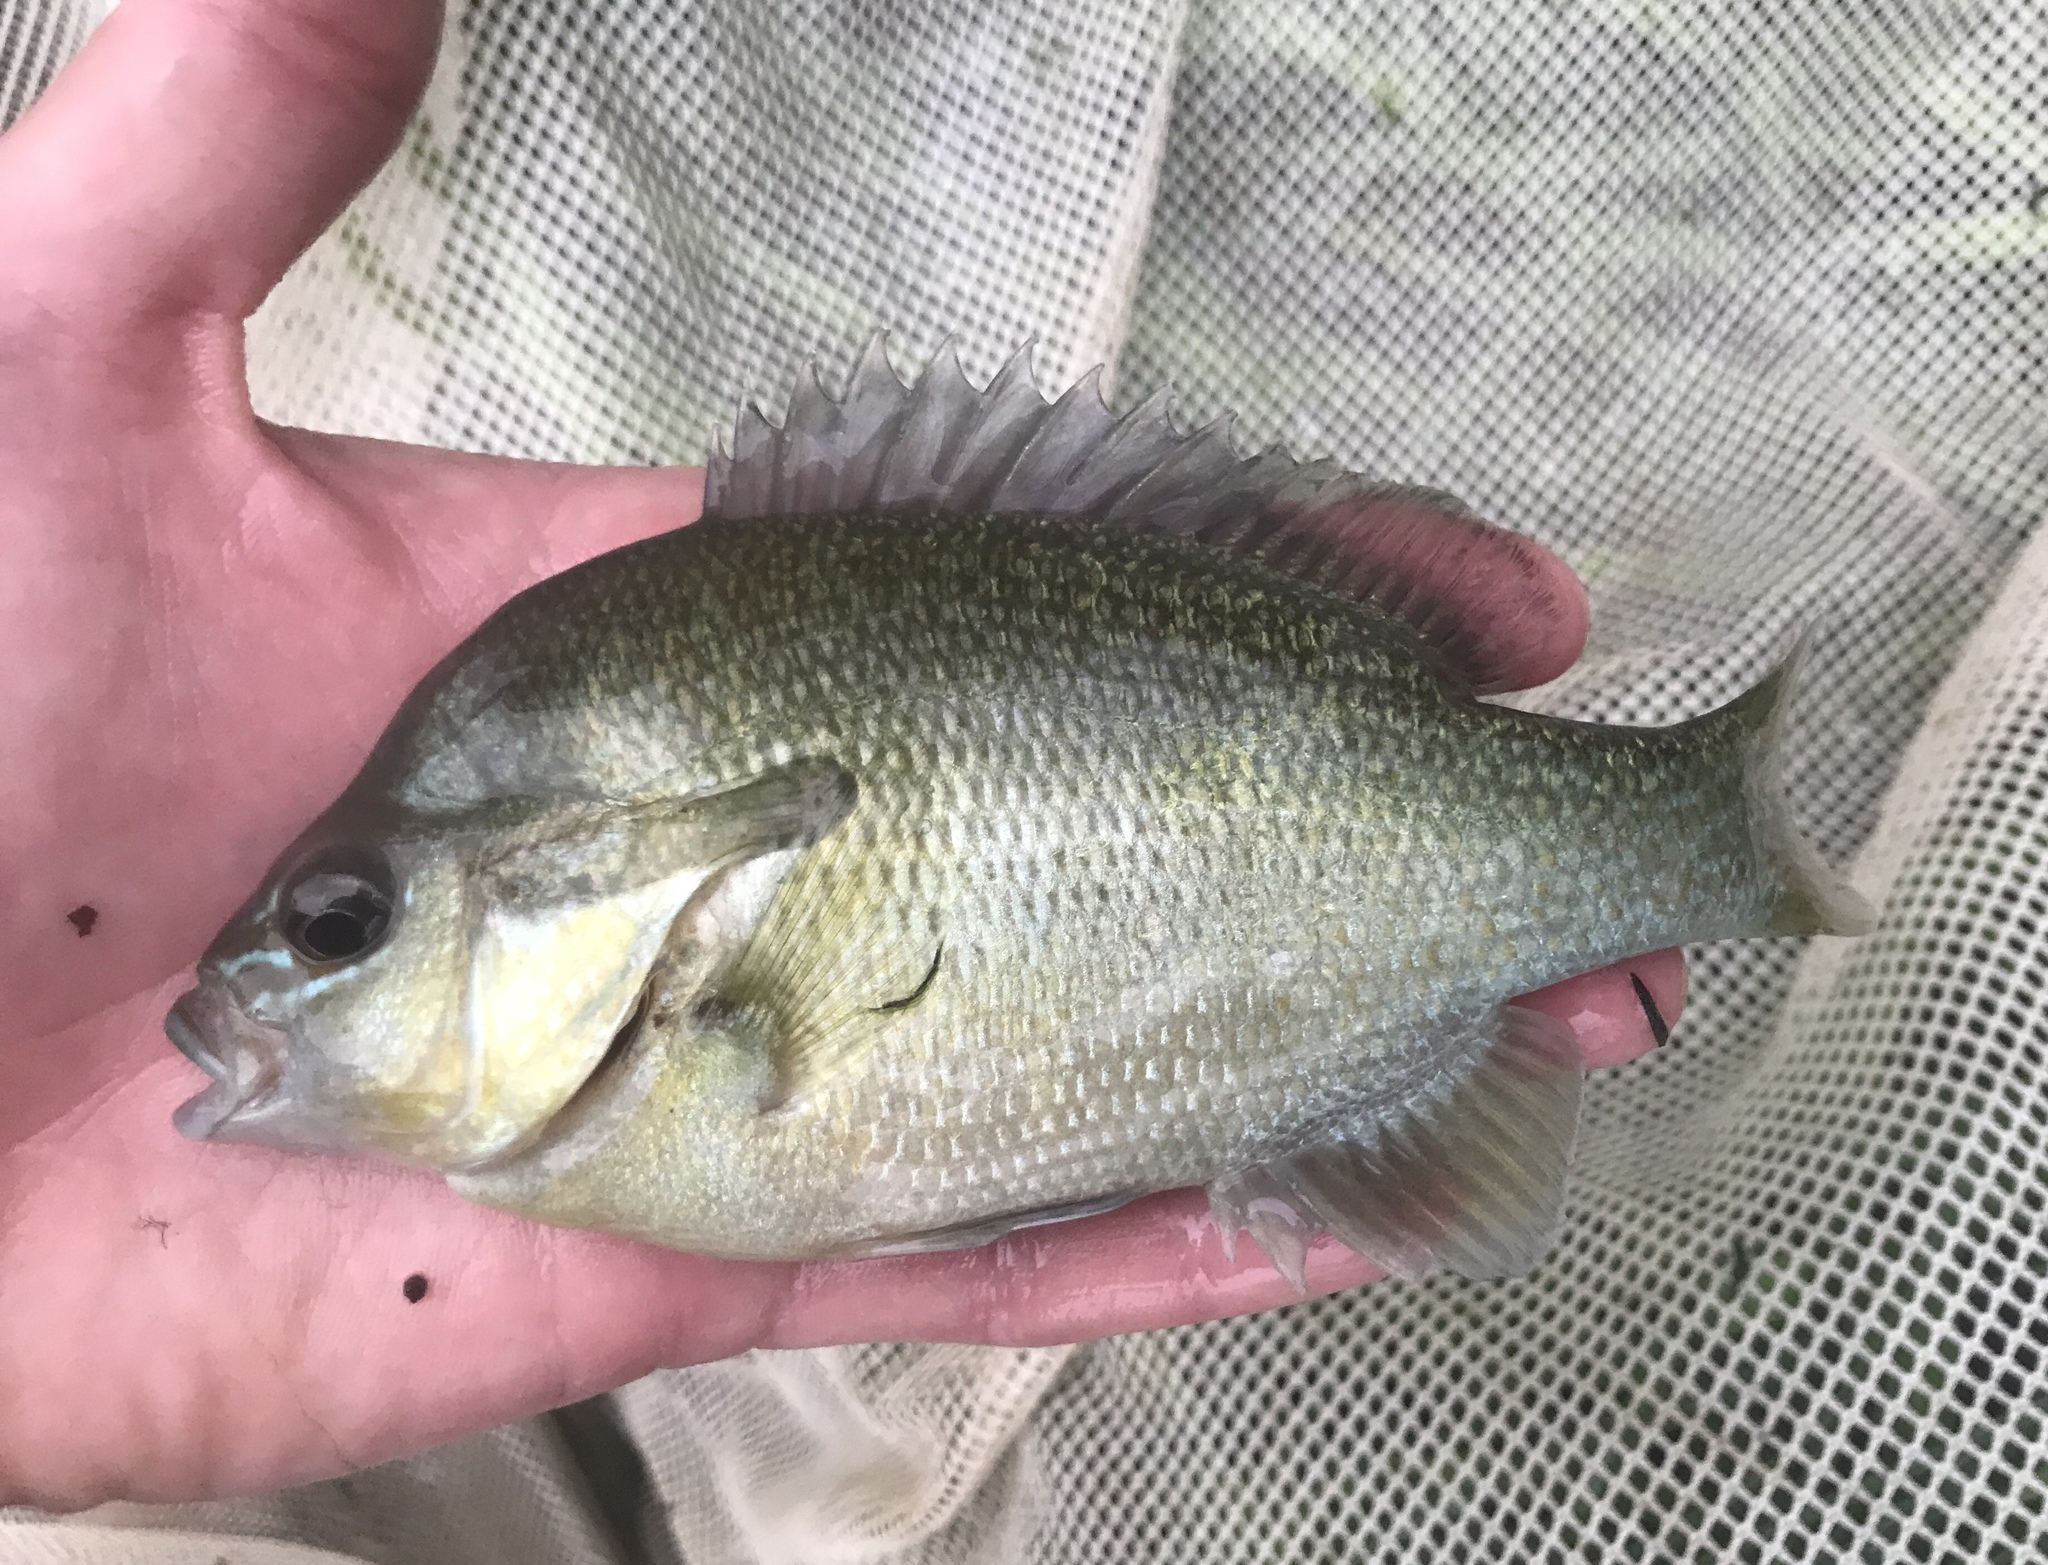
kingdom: Animalia
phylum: Chordata
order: Perciformes
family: Centrarchidae
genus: Lepomis
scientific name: Lepomis auritus
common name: Redbreast sunfish
